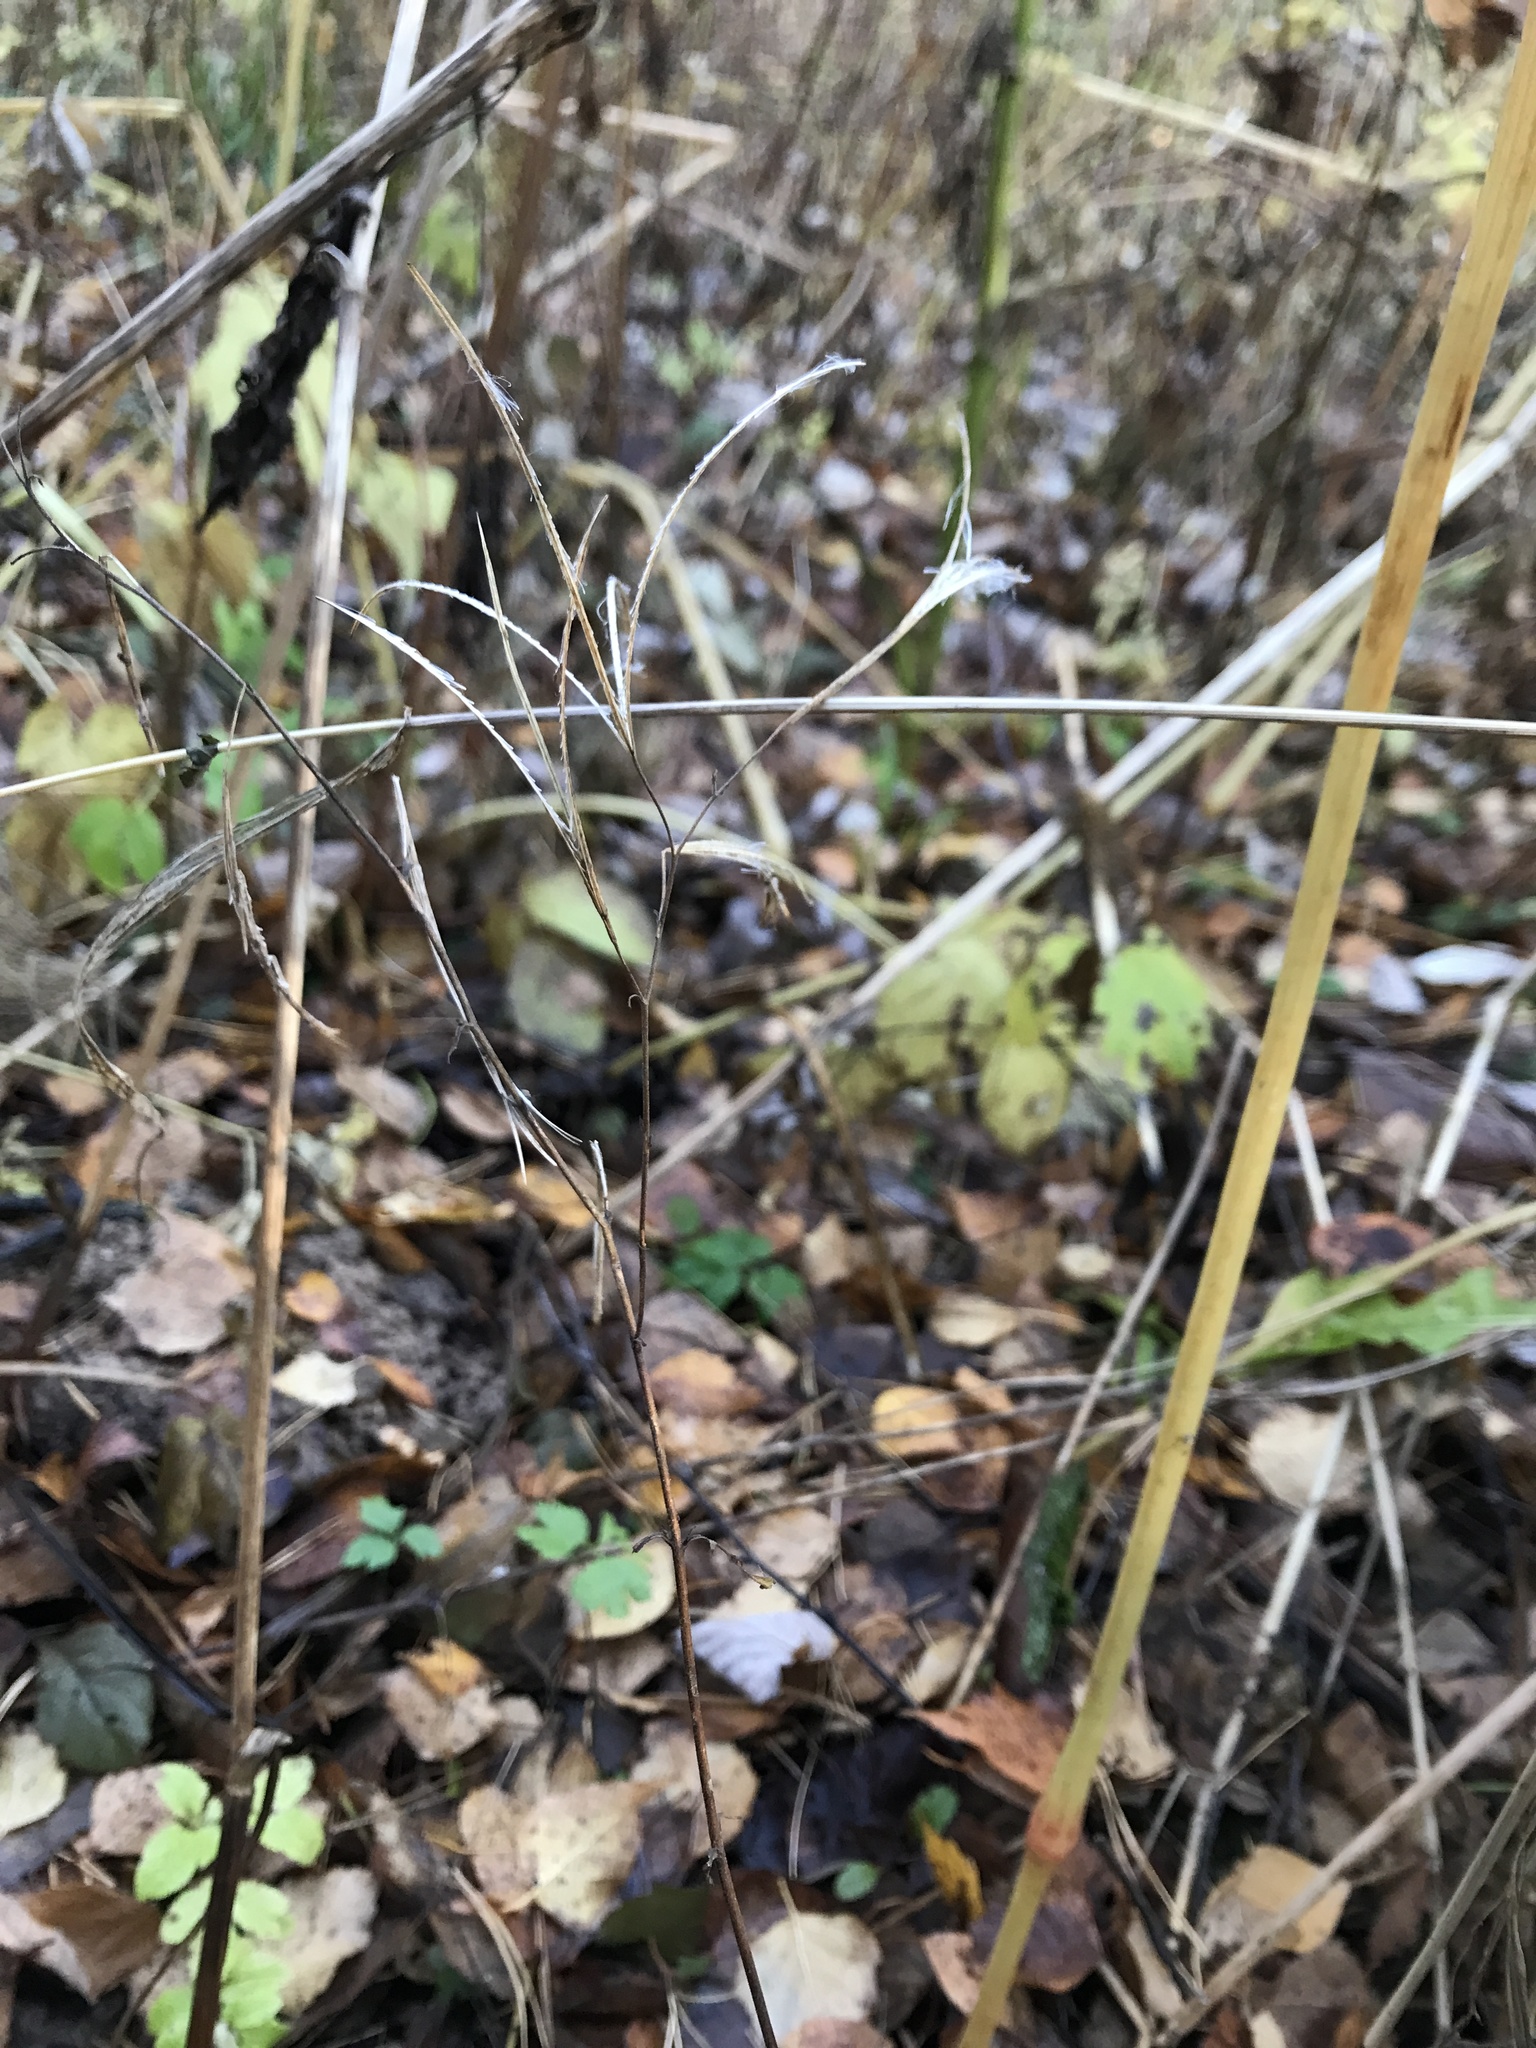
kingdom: Plantae
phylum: Tracheophyta
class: Magnoliopsida
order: Myrtales
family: Onagraceae
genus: Epilobium
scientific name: Epilobium
